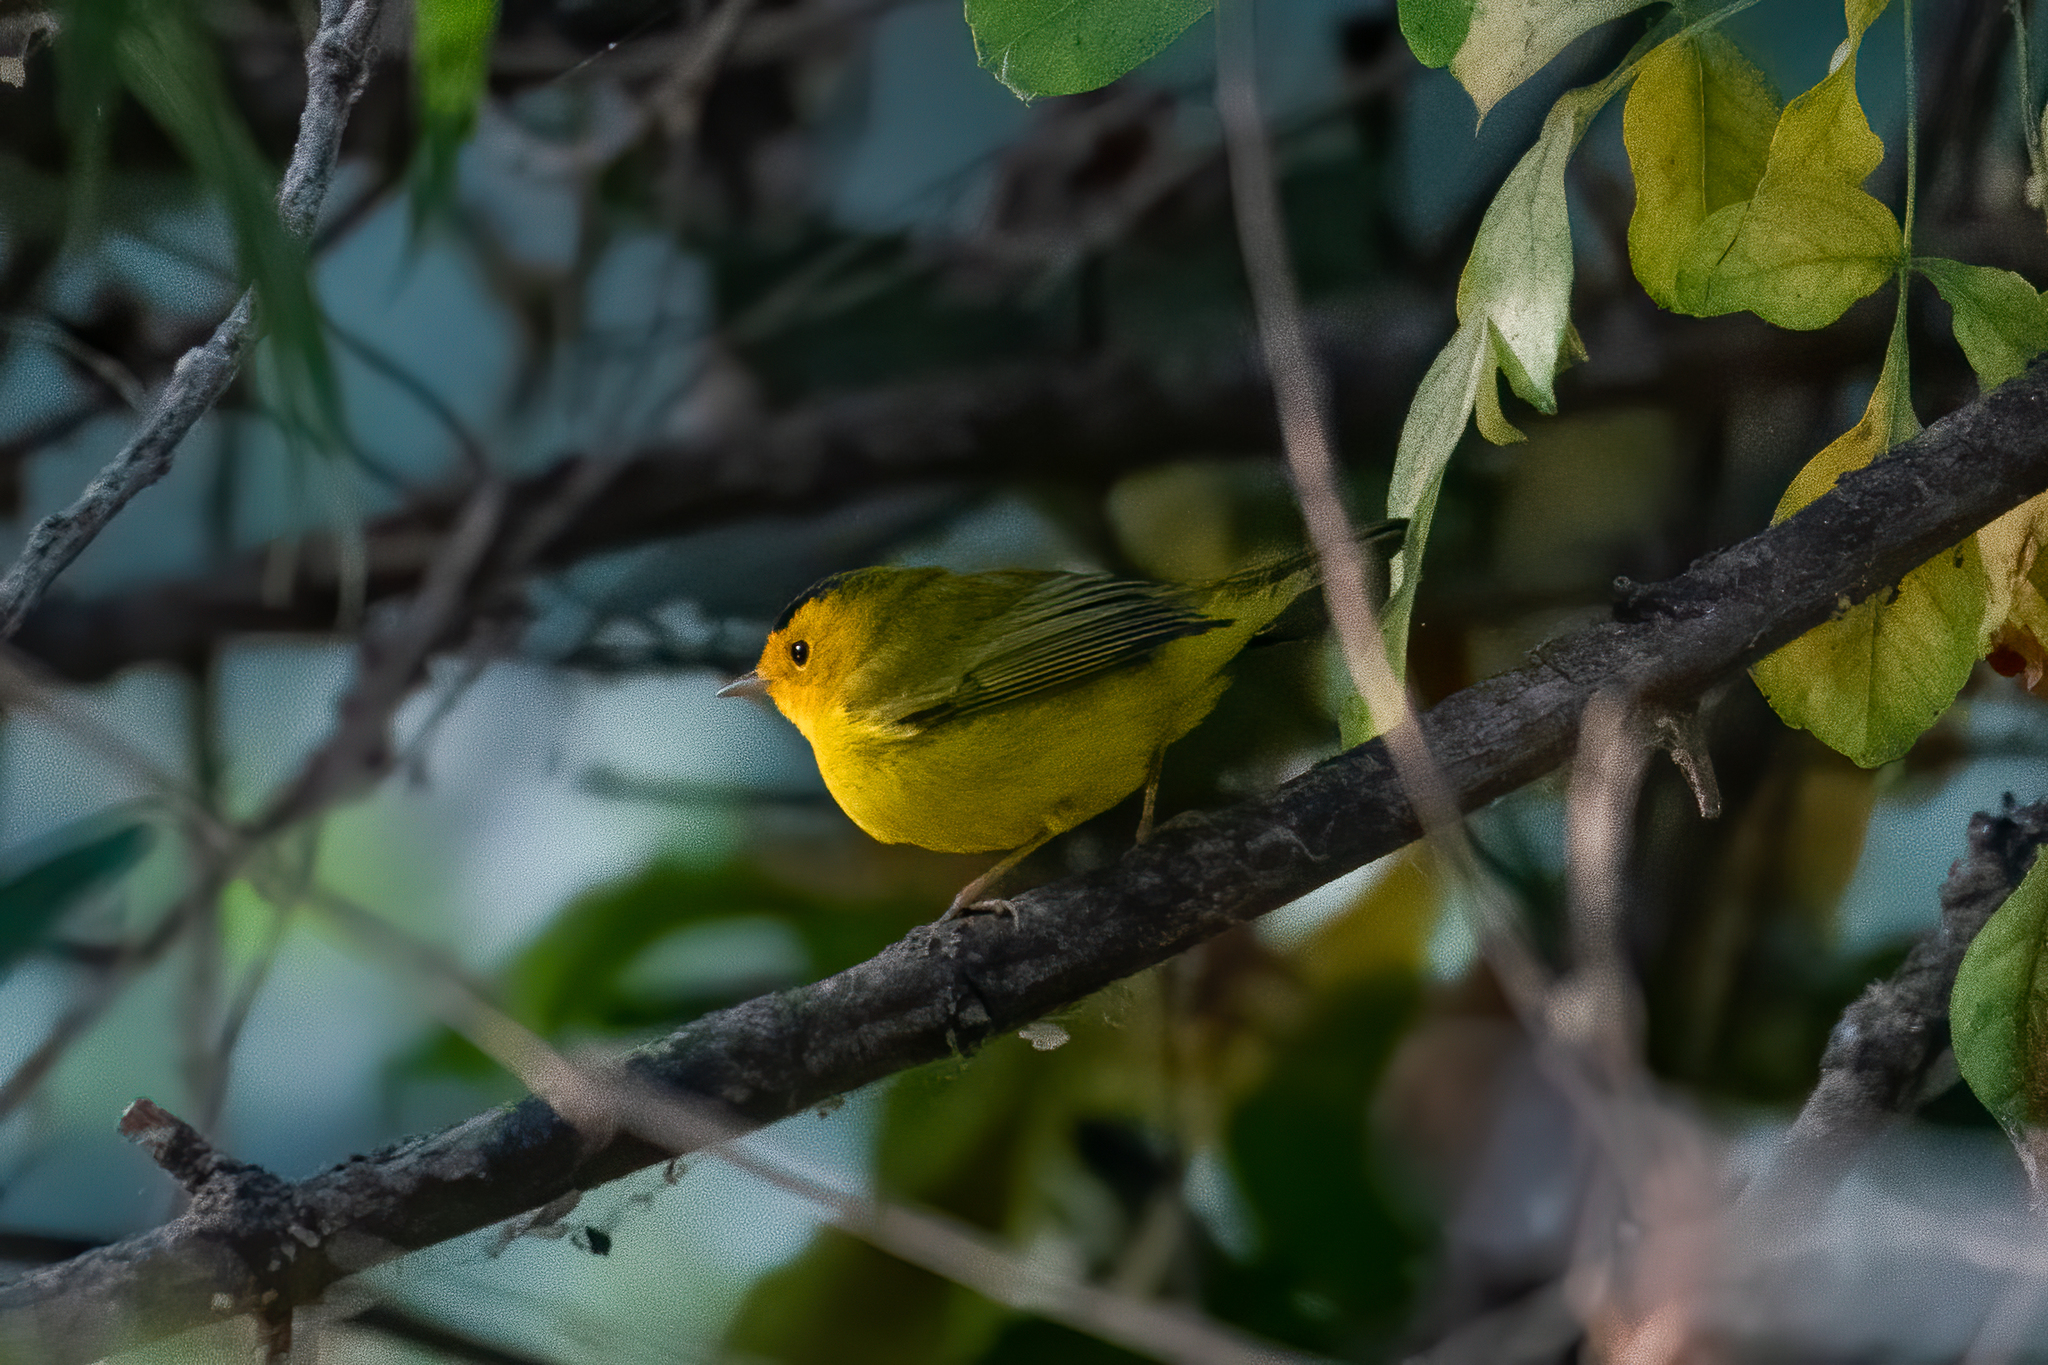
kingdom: Animalia
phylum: Chordata
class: Aves
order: Passeriformes
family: Parulidae
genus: Cardellina
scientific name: Cardellina pusilla
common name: Wilson's warbler
